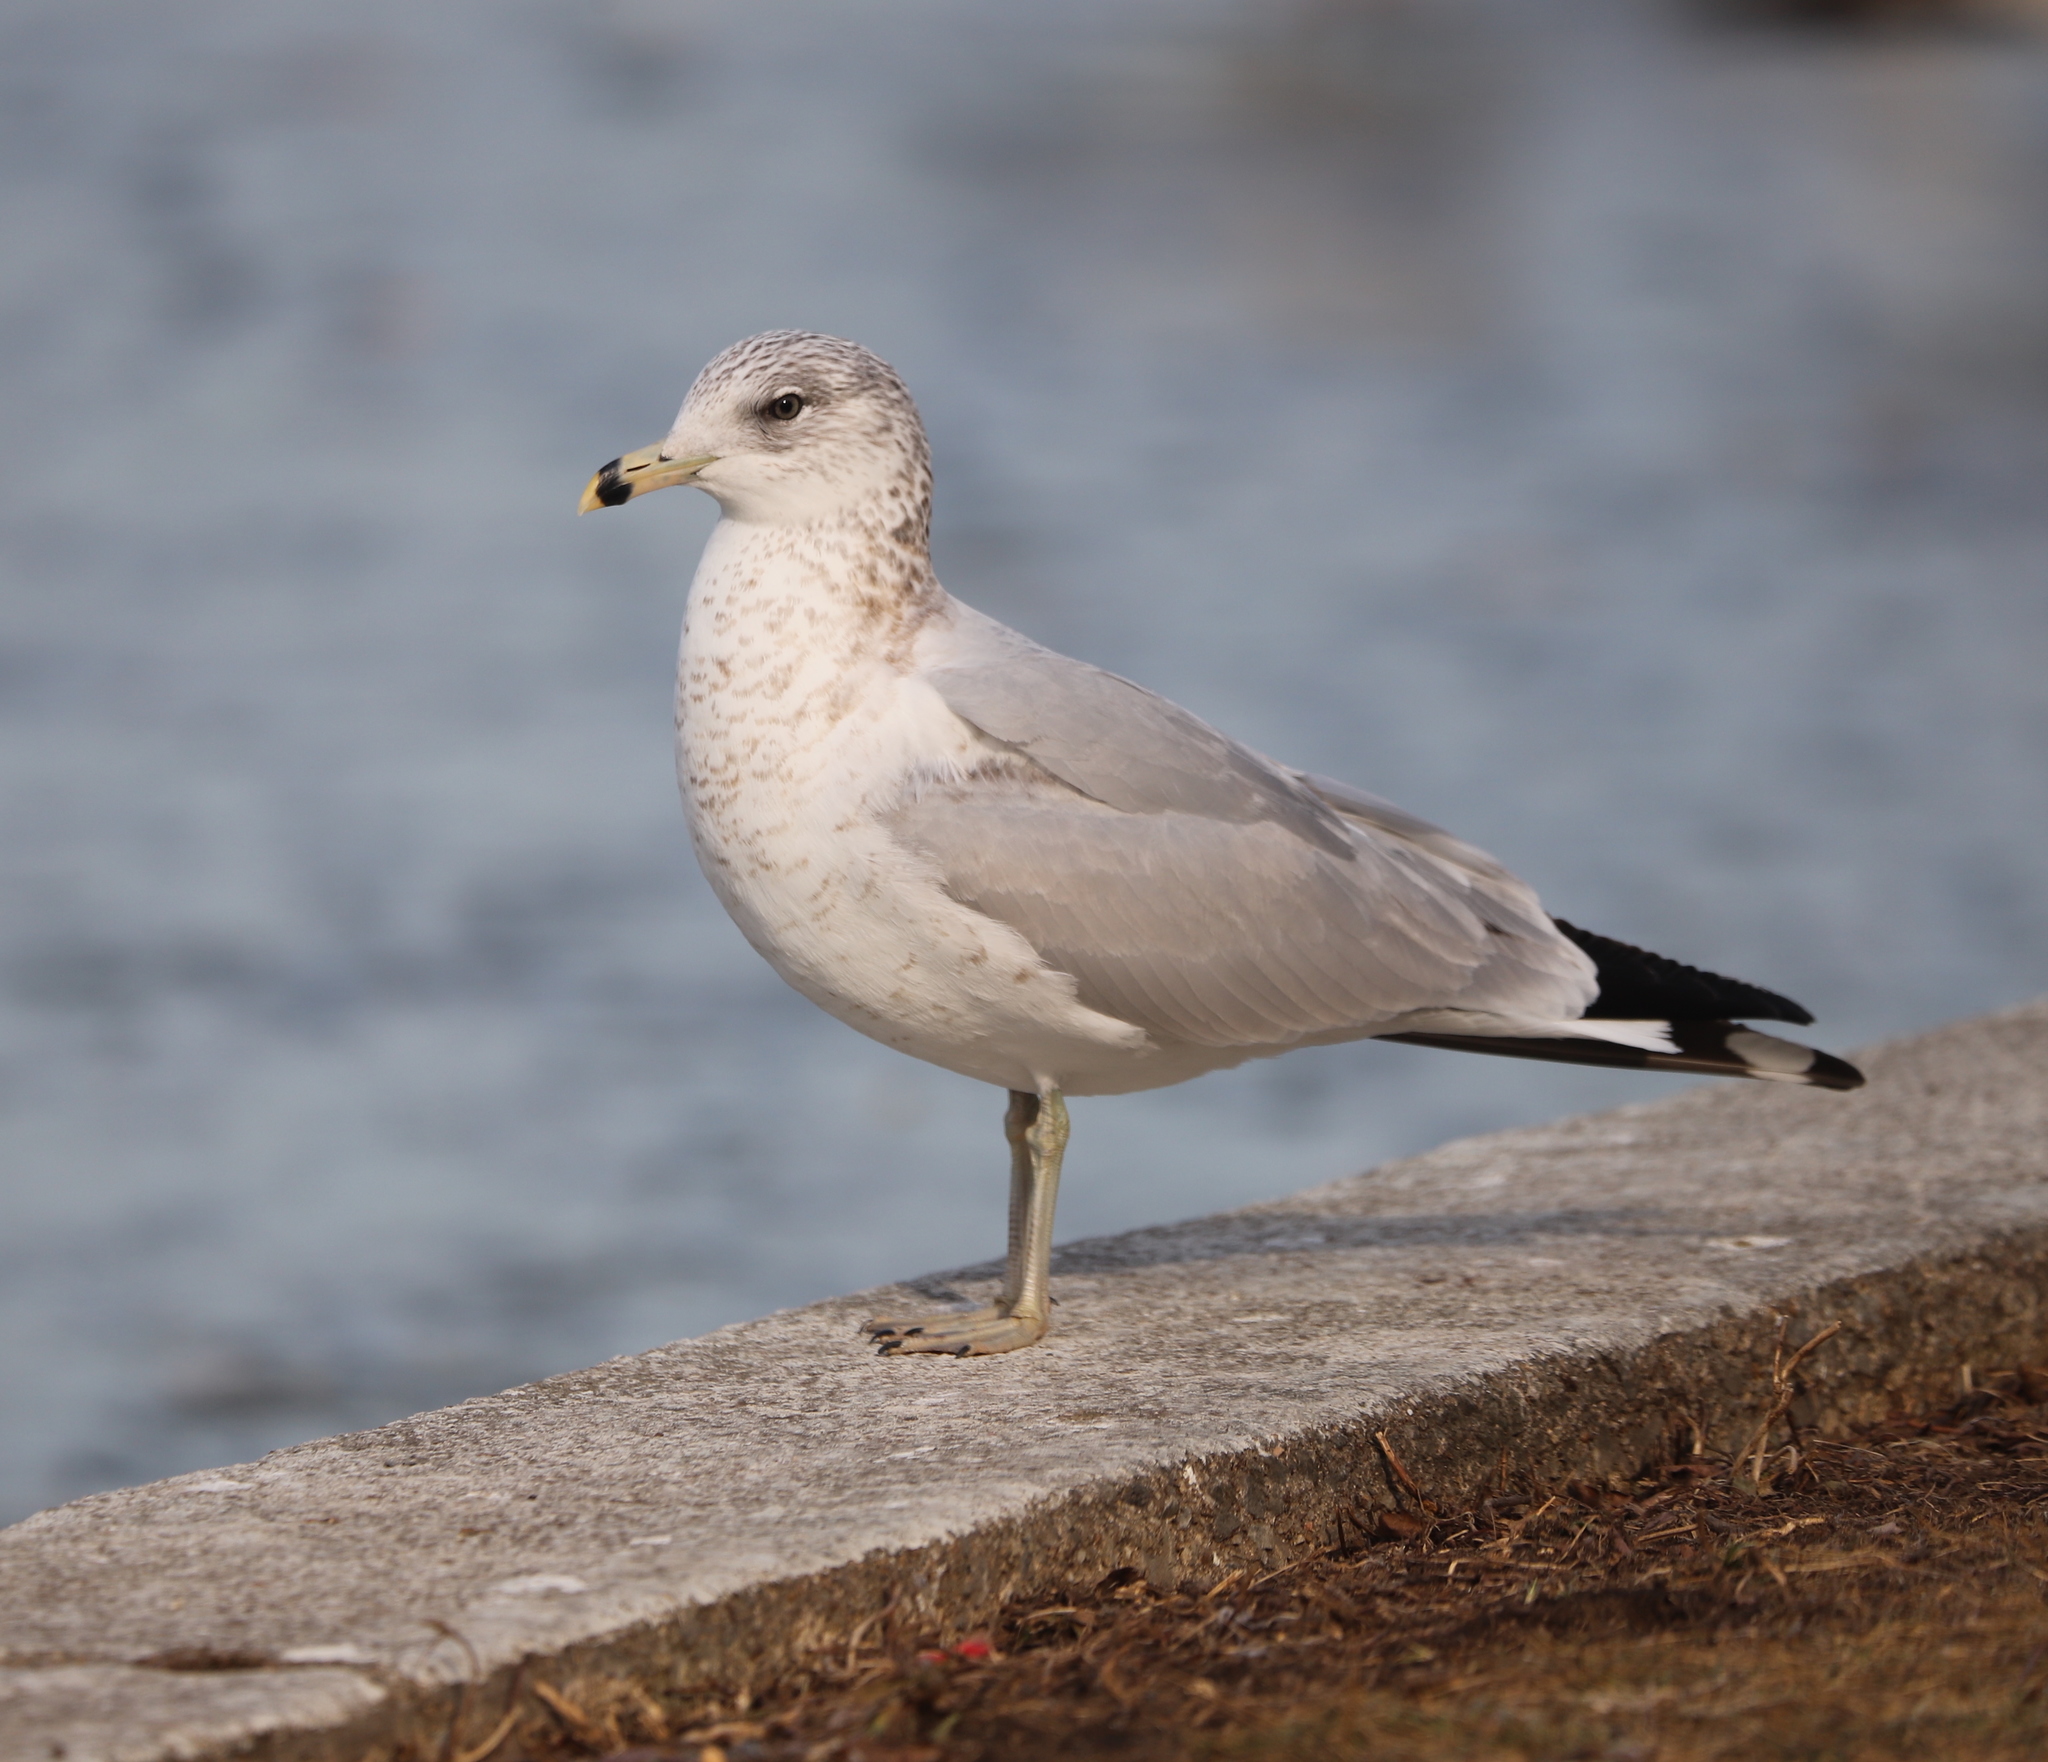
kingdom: Animalia
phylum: Chordata
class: Aves
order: Charadriiformes
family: Laridae
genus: Larus
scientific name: Larus delawarensis
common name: Ring-billed gull
